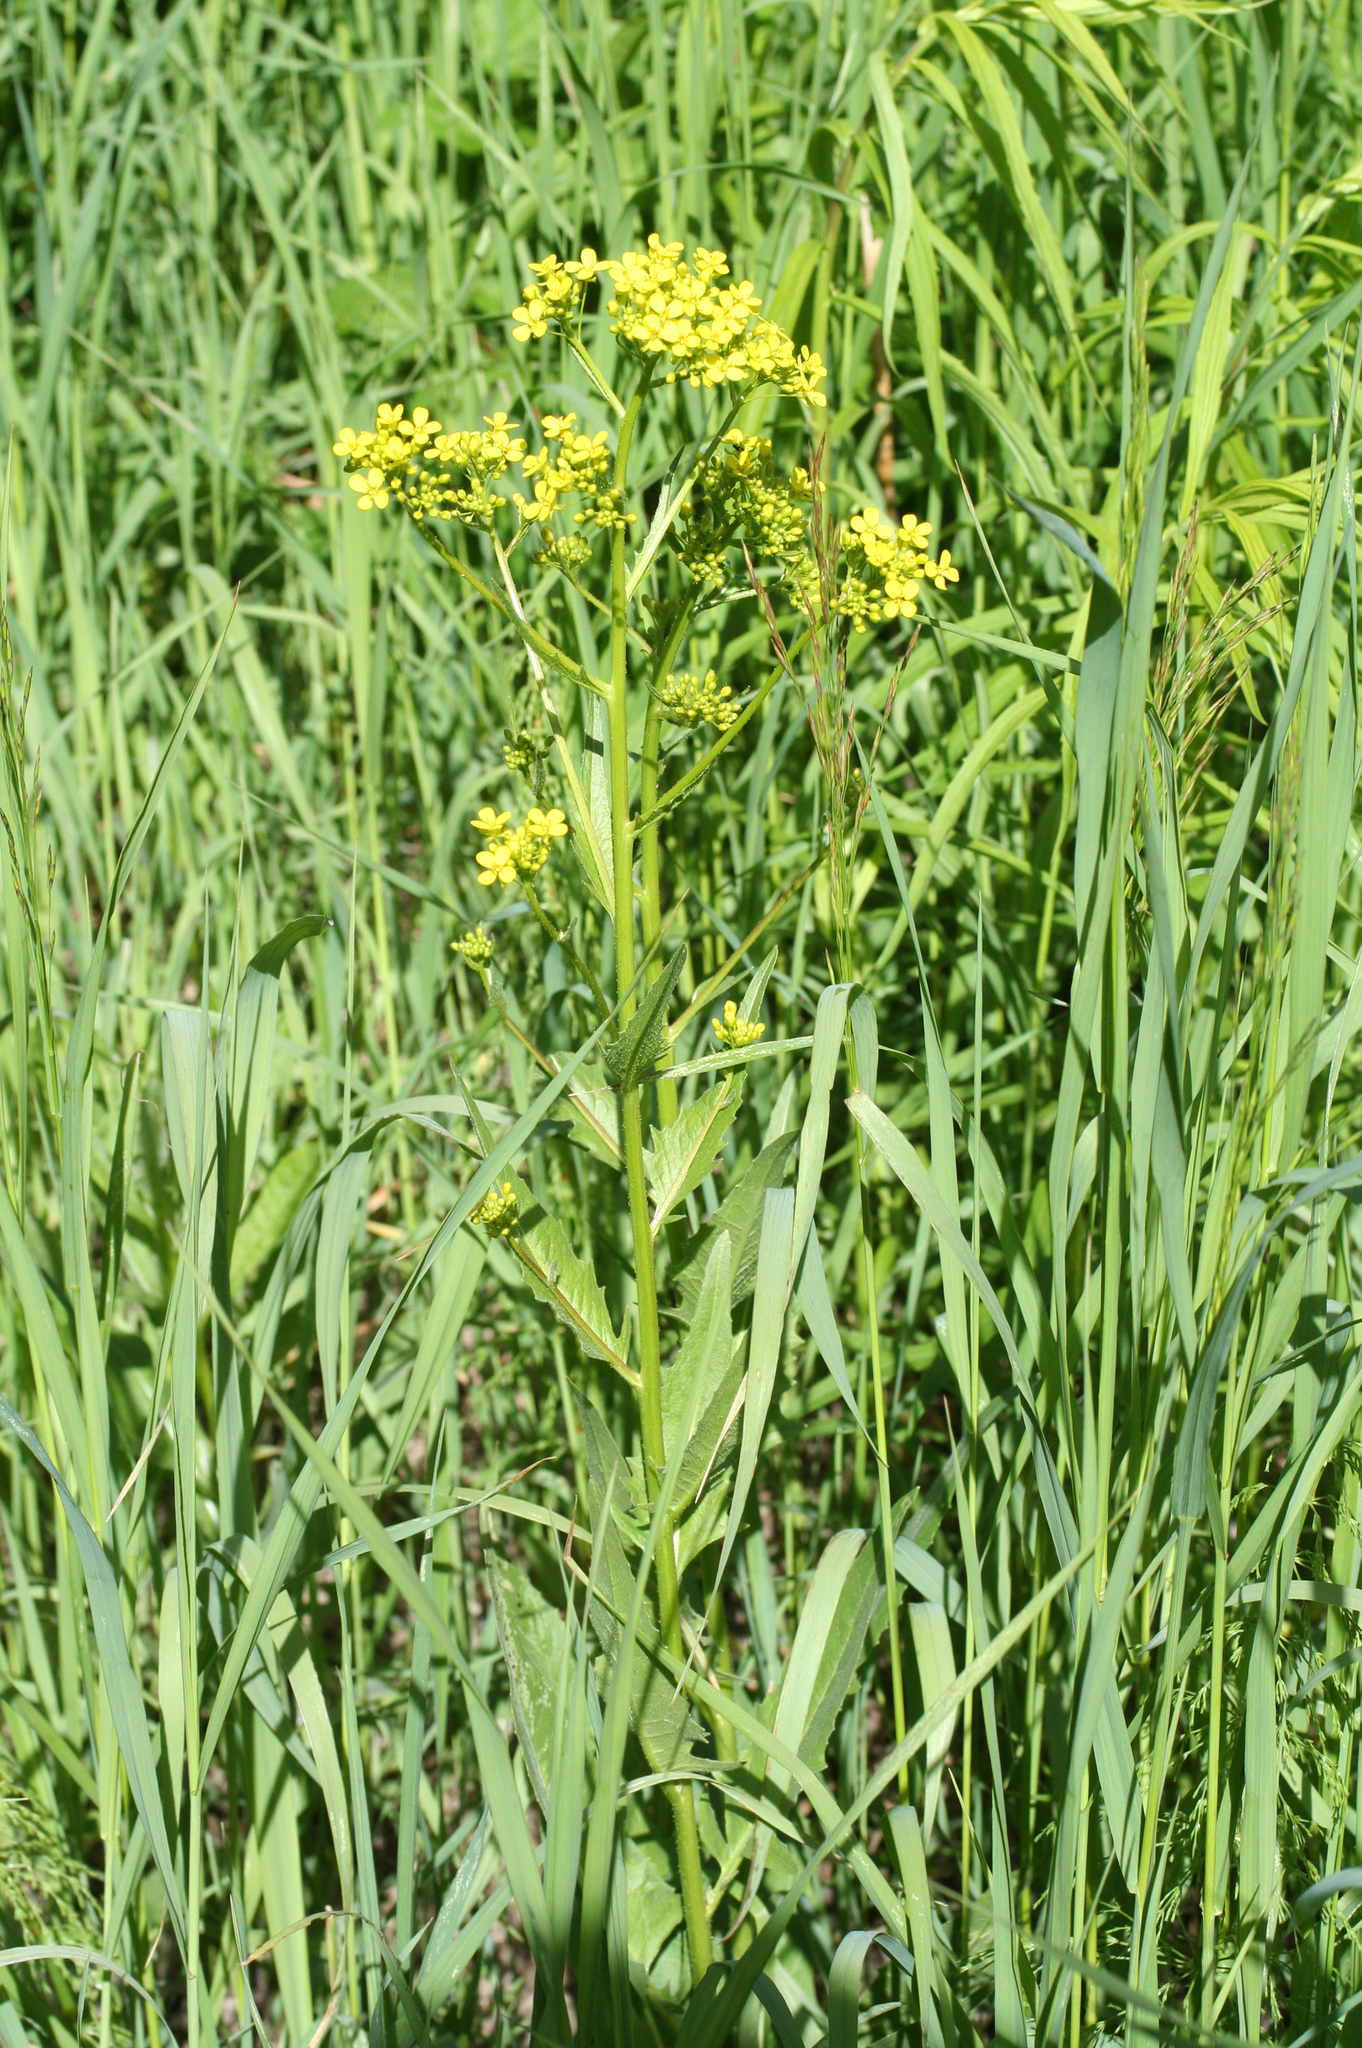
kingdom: Plantae
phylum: Tracheophyta
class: Magnoliopsida
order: Brassicales
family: Brassicaceae
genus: Bunias
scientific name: Bunias orientalis
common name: Warty-cabbage
